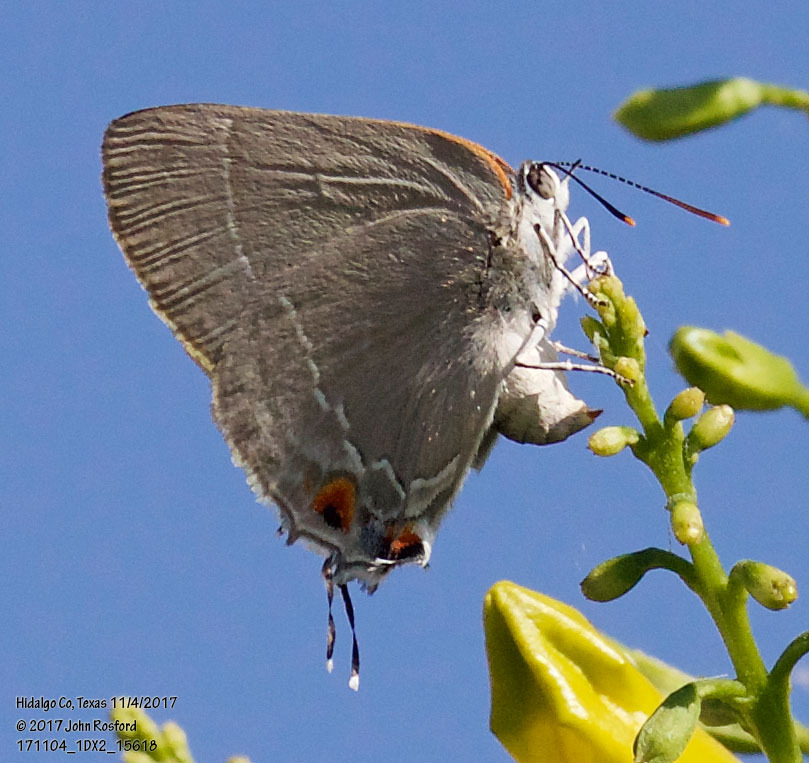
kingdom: Animalia
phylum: Arthropoda
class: Insecta
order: Lepidoptera
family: Lycaenidae
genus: Thecla
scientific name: Thecla marius
